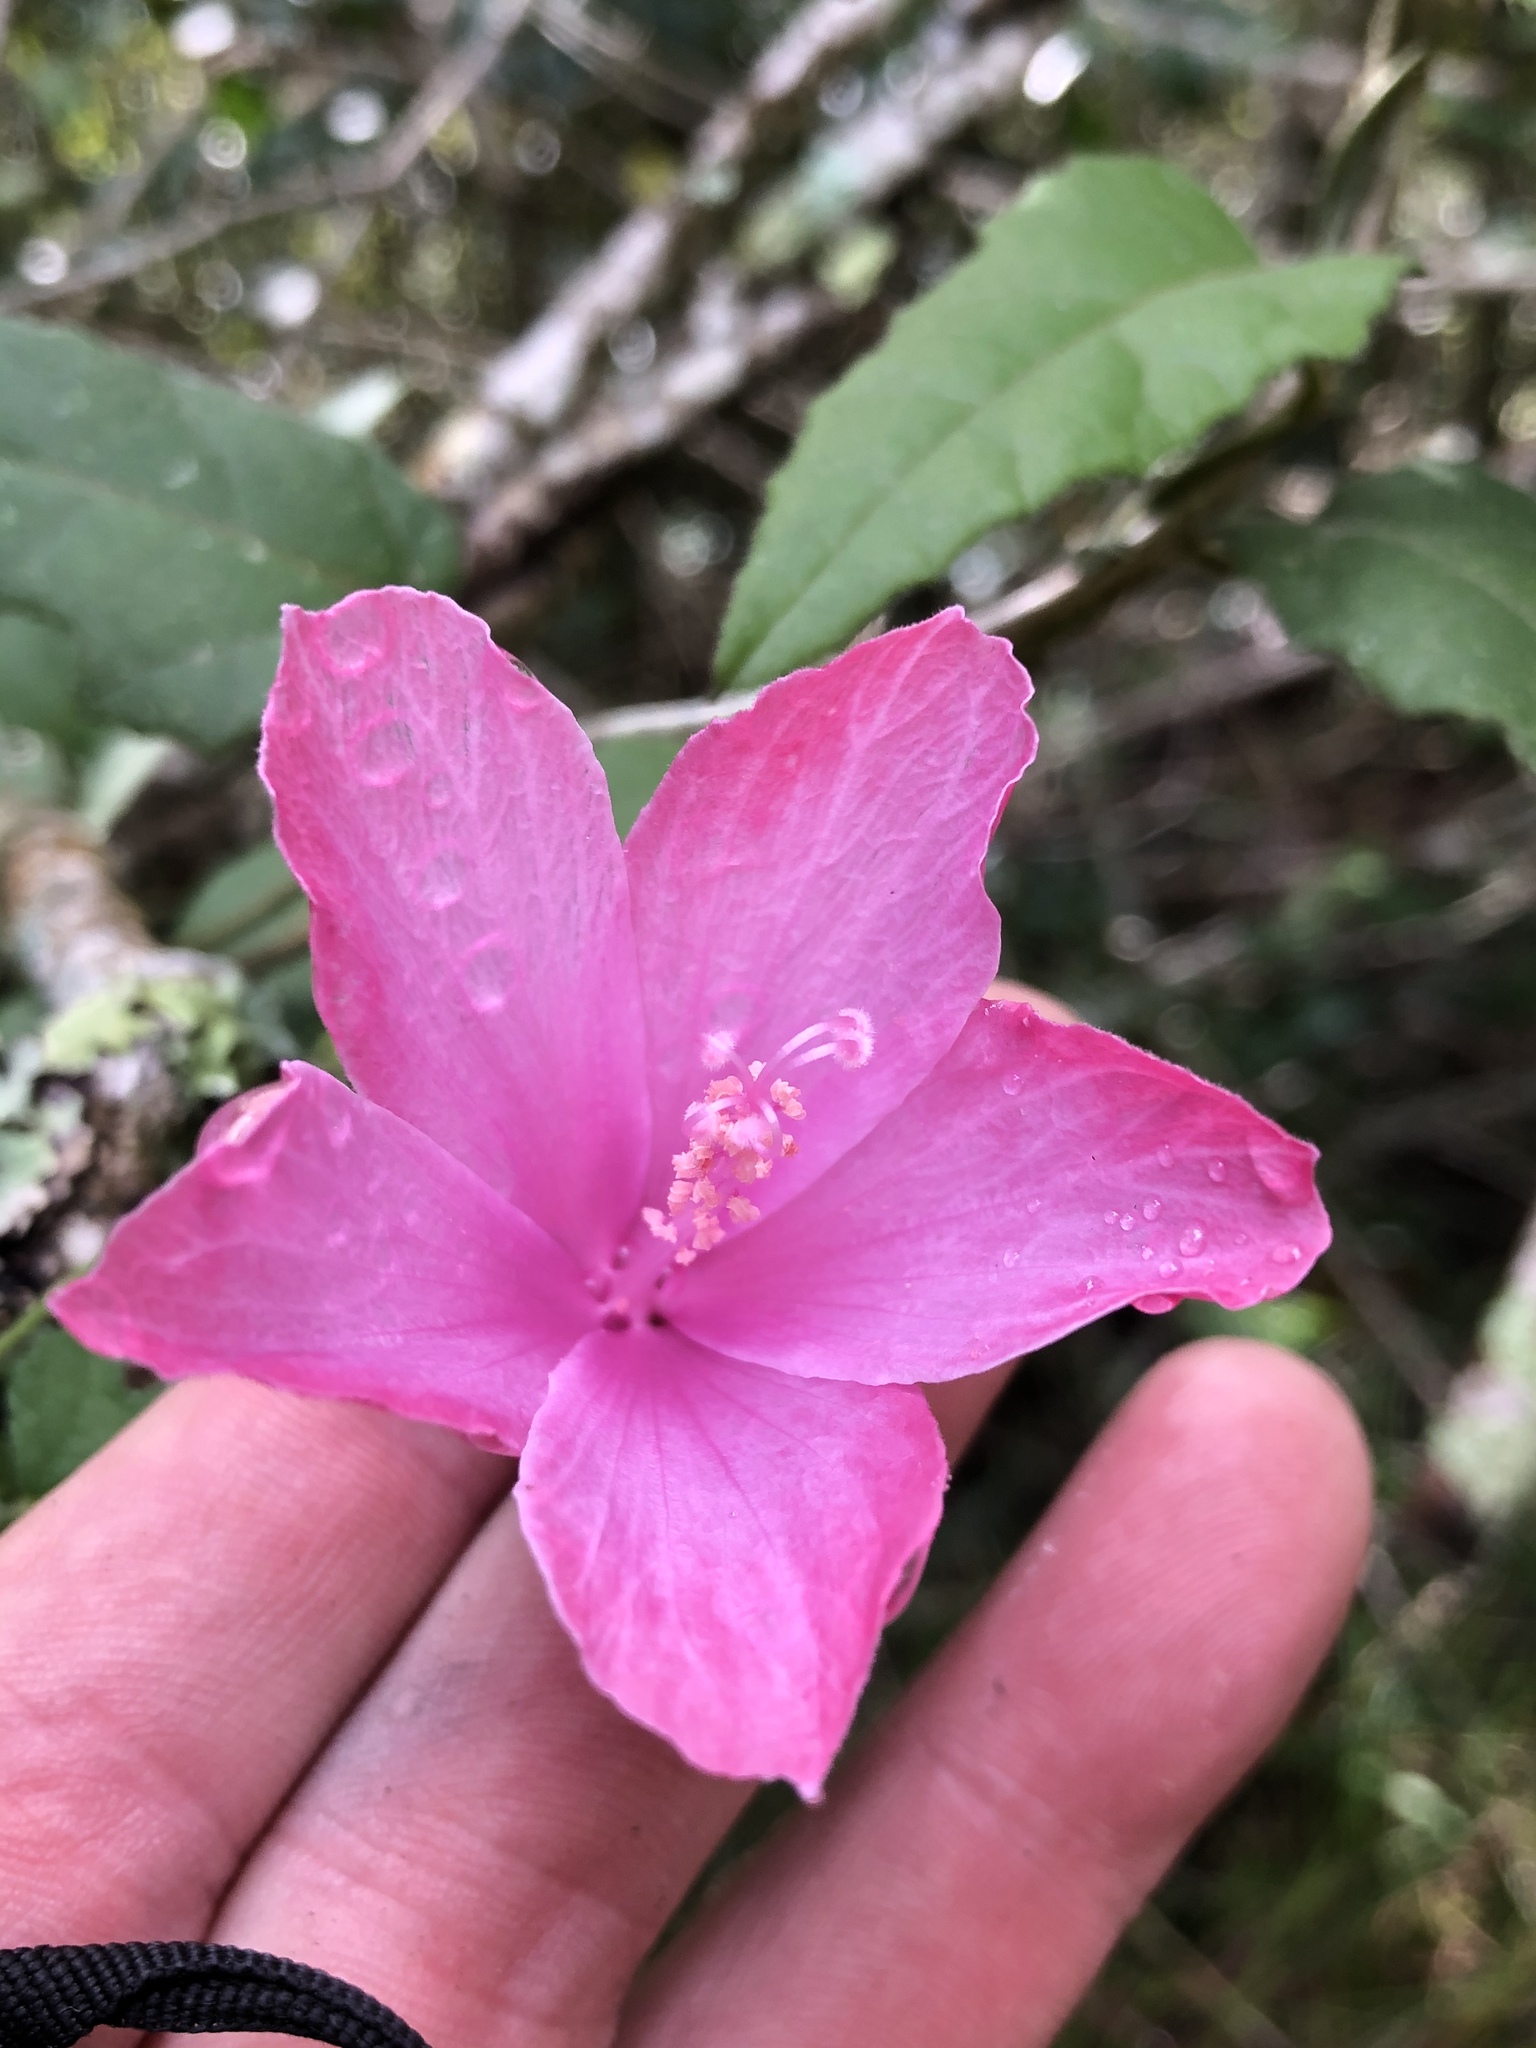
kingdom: Plantae
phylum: Tracheophyta
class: Magnoliopsida
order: Malvales
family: Malvaceae
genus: Hibiscus
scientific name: Hibiscus pedunculatus
